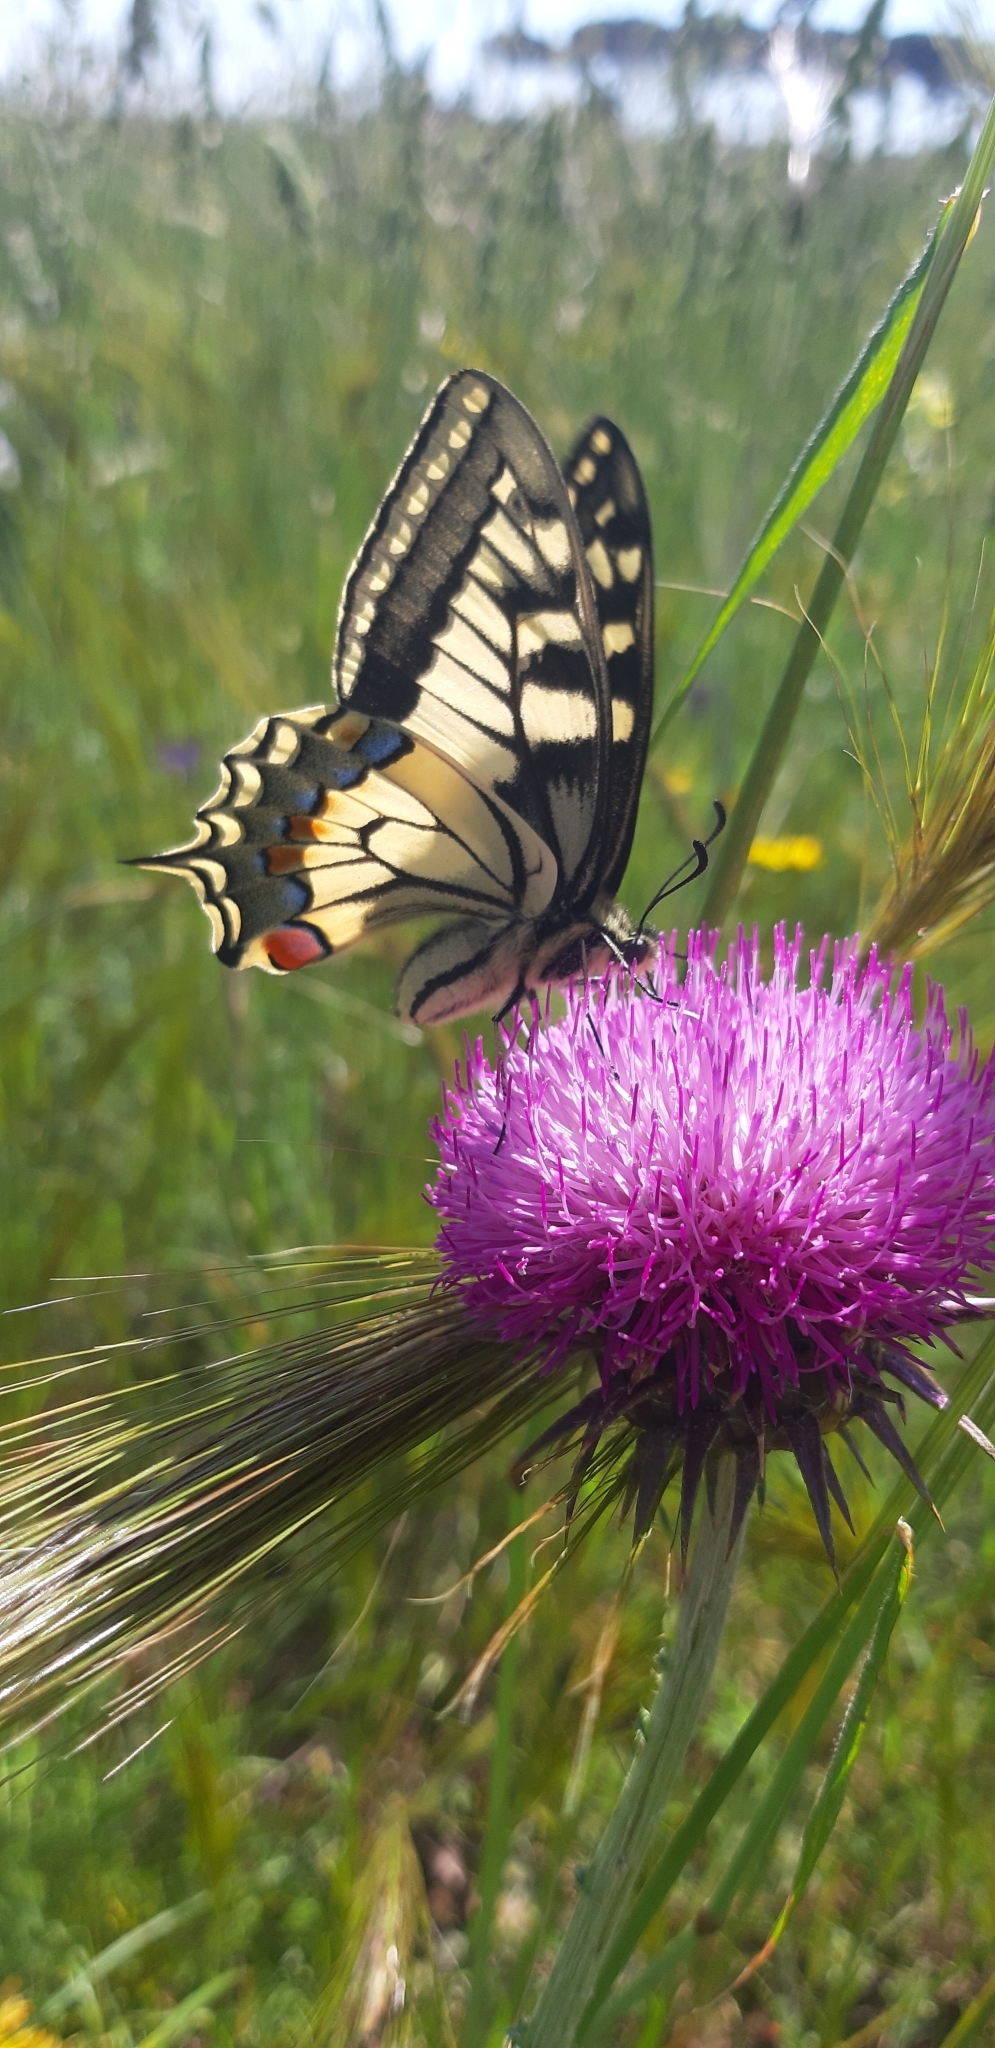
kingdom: Animalia
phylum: Arthropoda
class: Insecta
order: Lepidoptera
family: Papilionidae
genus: Papilio
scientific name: Papilio machaon
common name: Swallowtail
